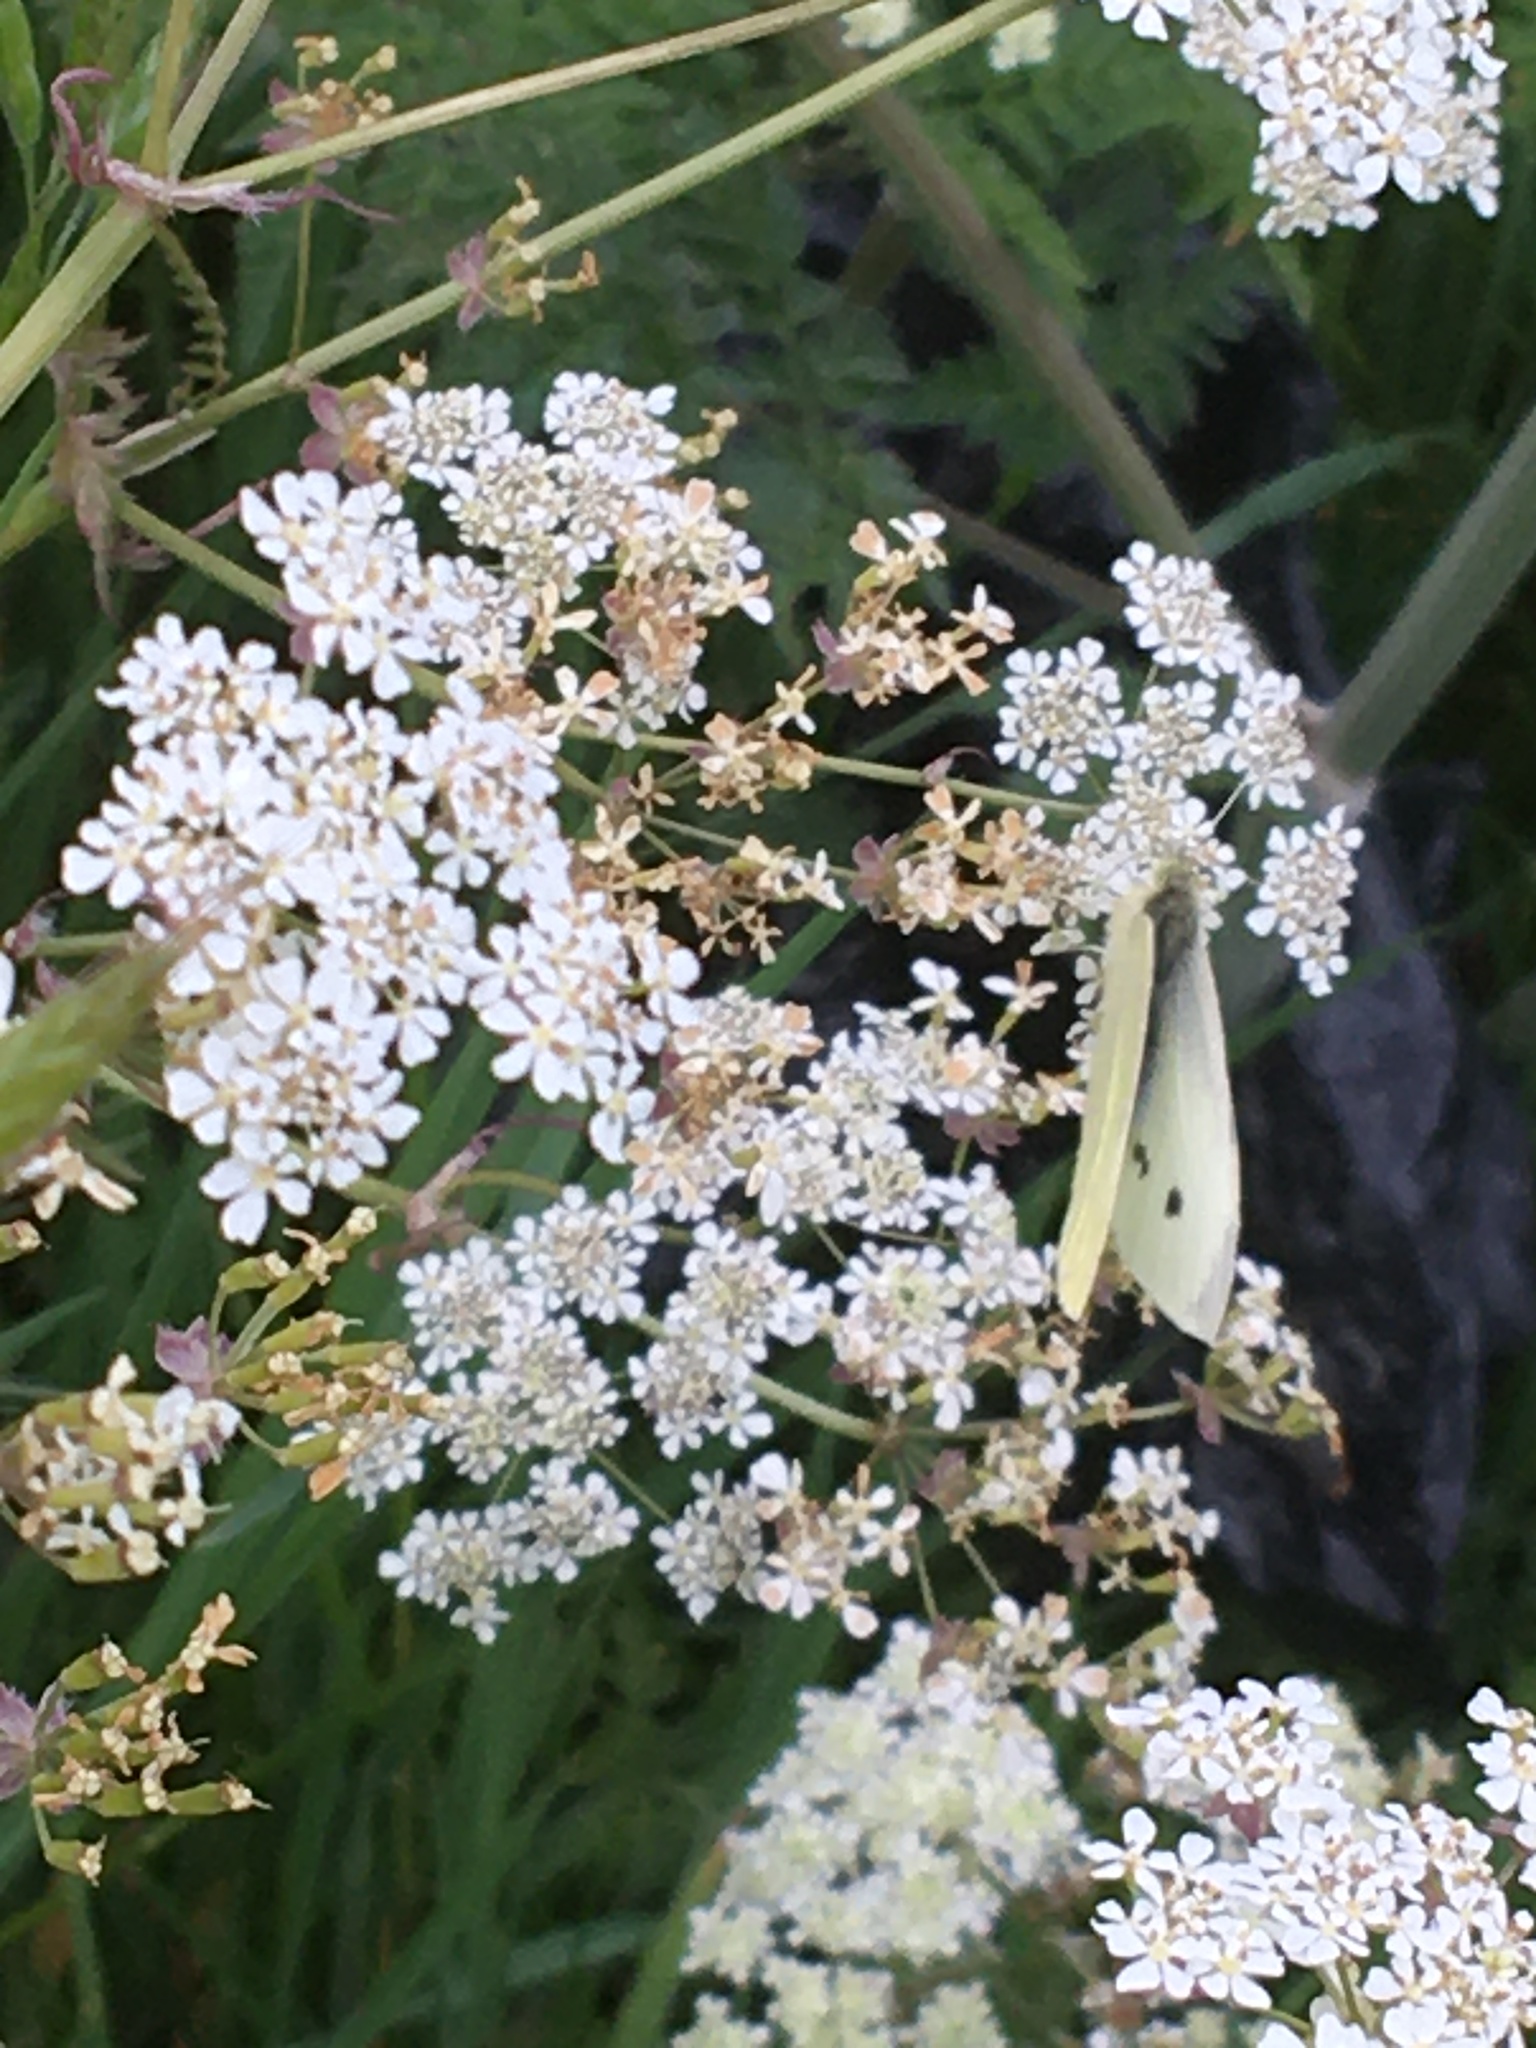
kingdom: Animalia
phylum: Arthropoda
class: Insecta
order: Lepidoptera
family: Pieridae
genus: Pieris
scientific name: Pieris rapae
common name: Small white
